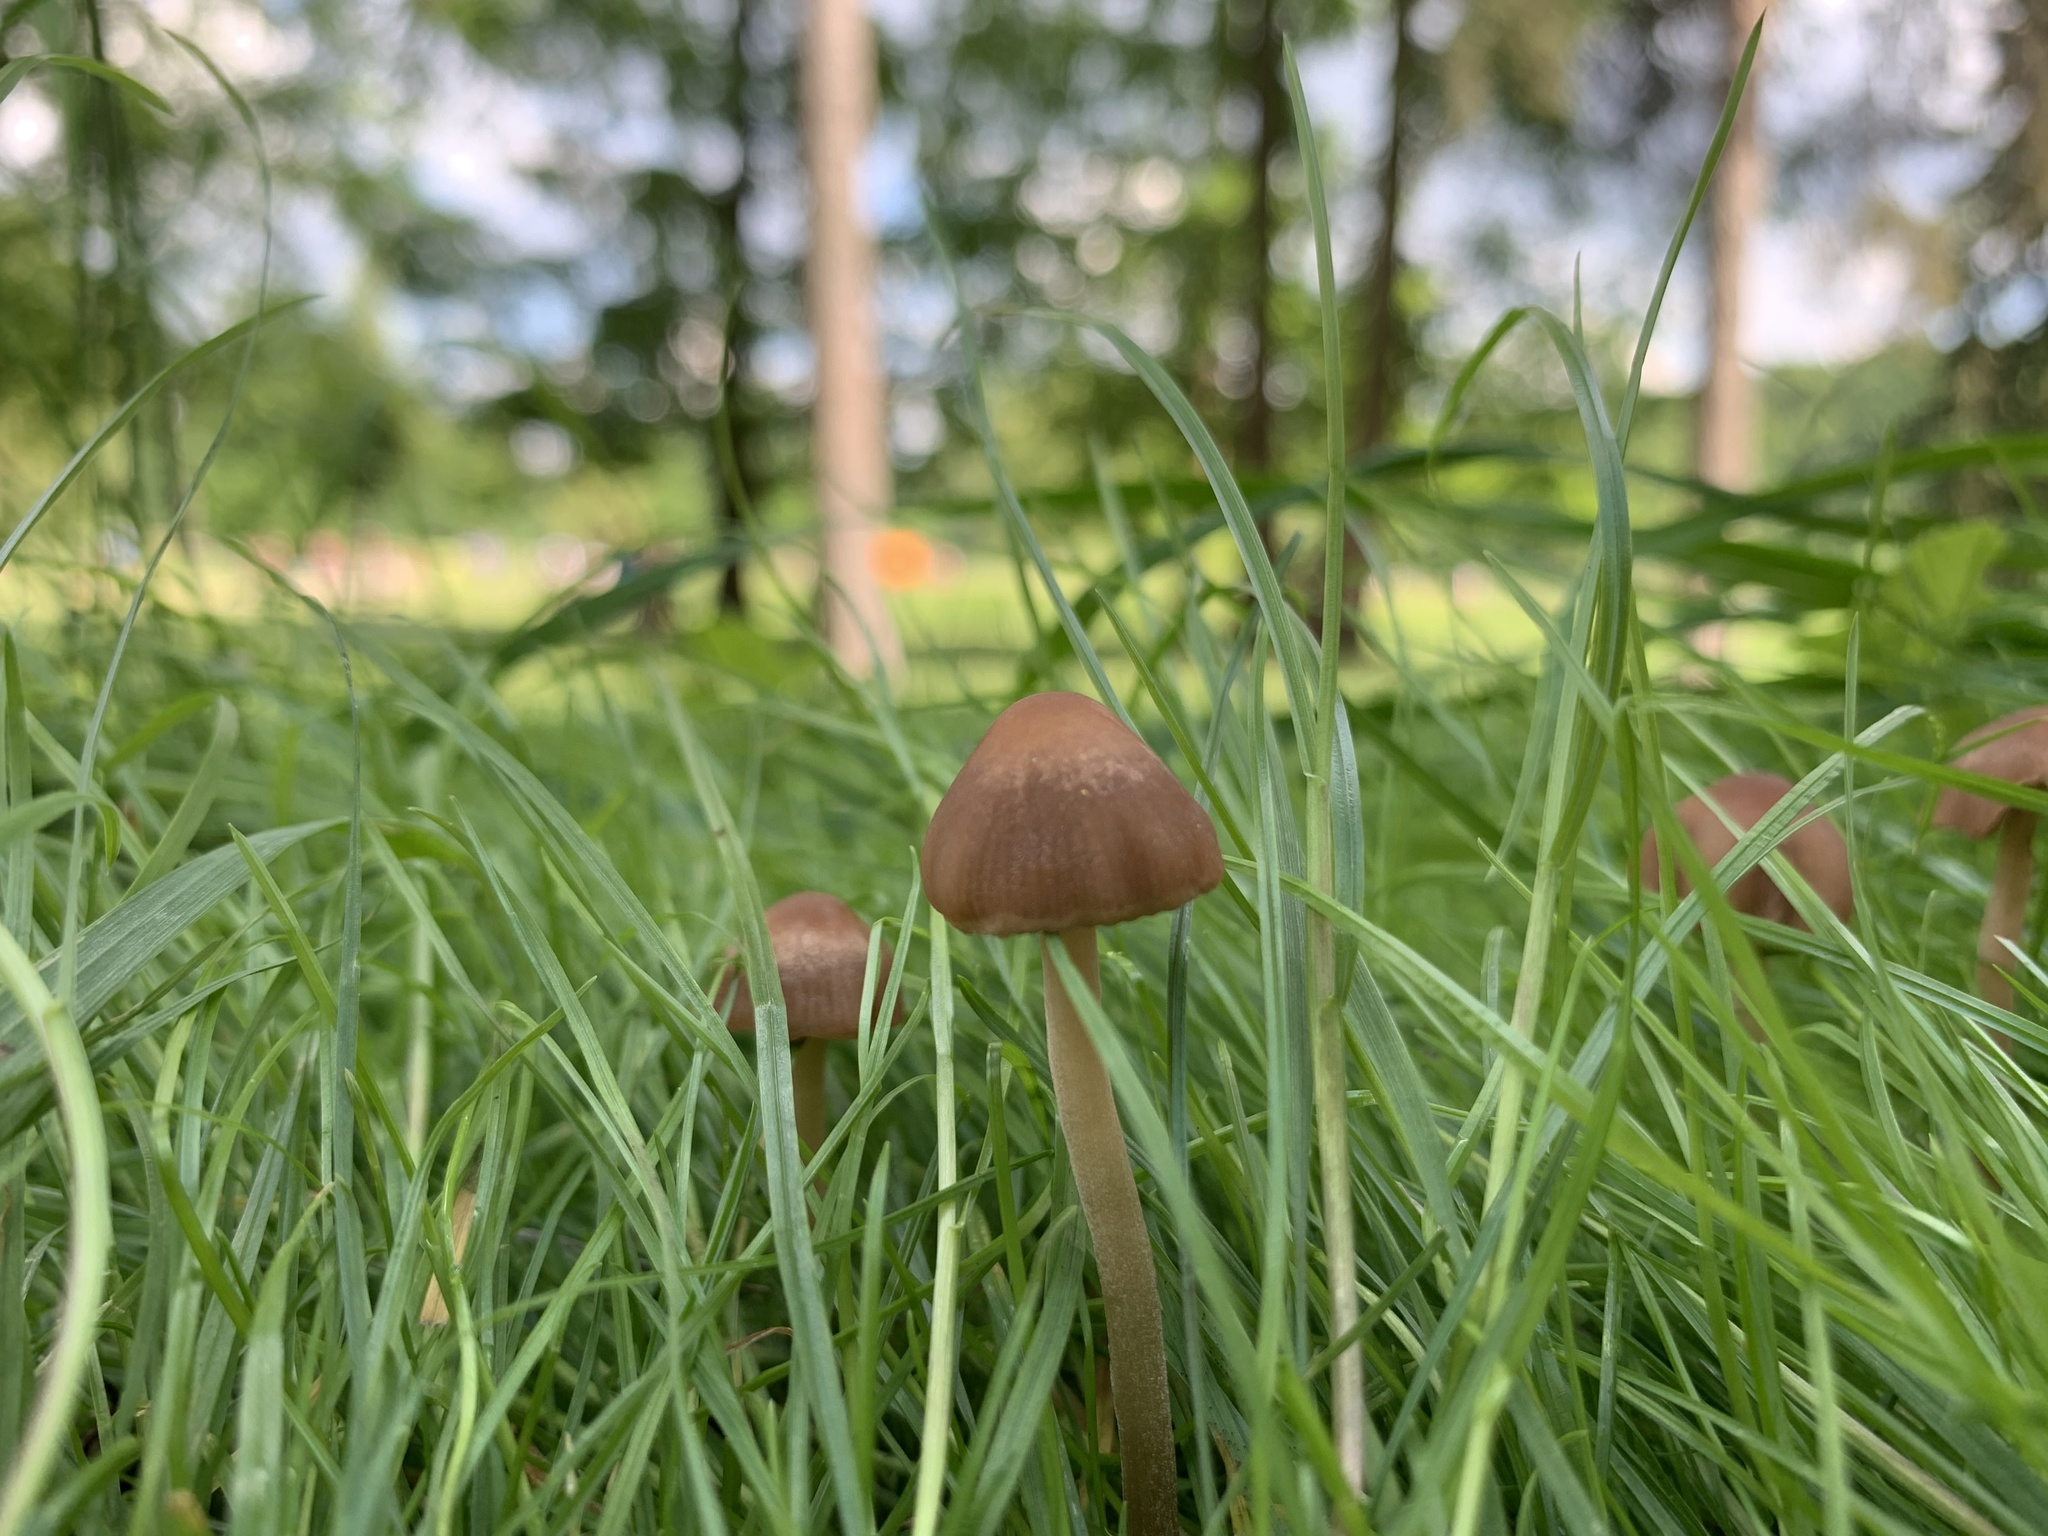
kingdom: Fungi
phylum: Basidiomycota
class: Agaricomycetes
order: Agaricales
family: Bolbitiaceae
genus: Panaeolina
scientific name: Panaeolina foenisecii
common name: Brown hay cap
